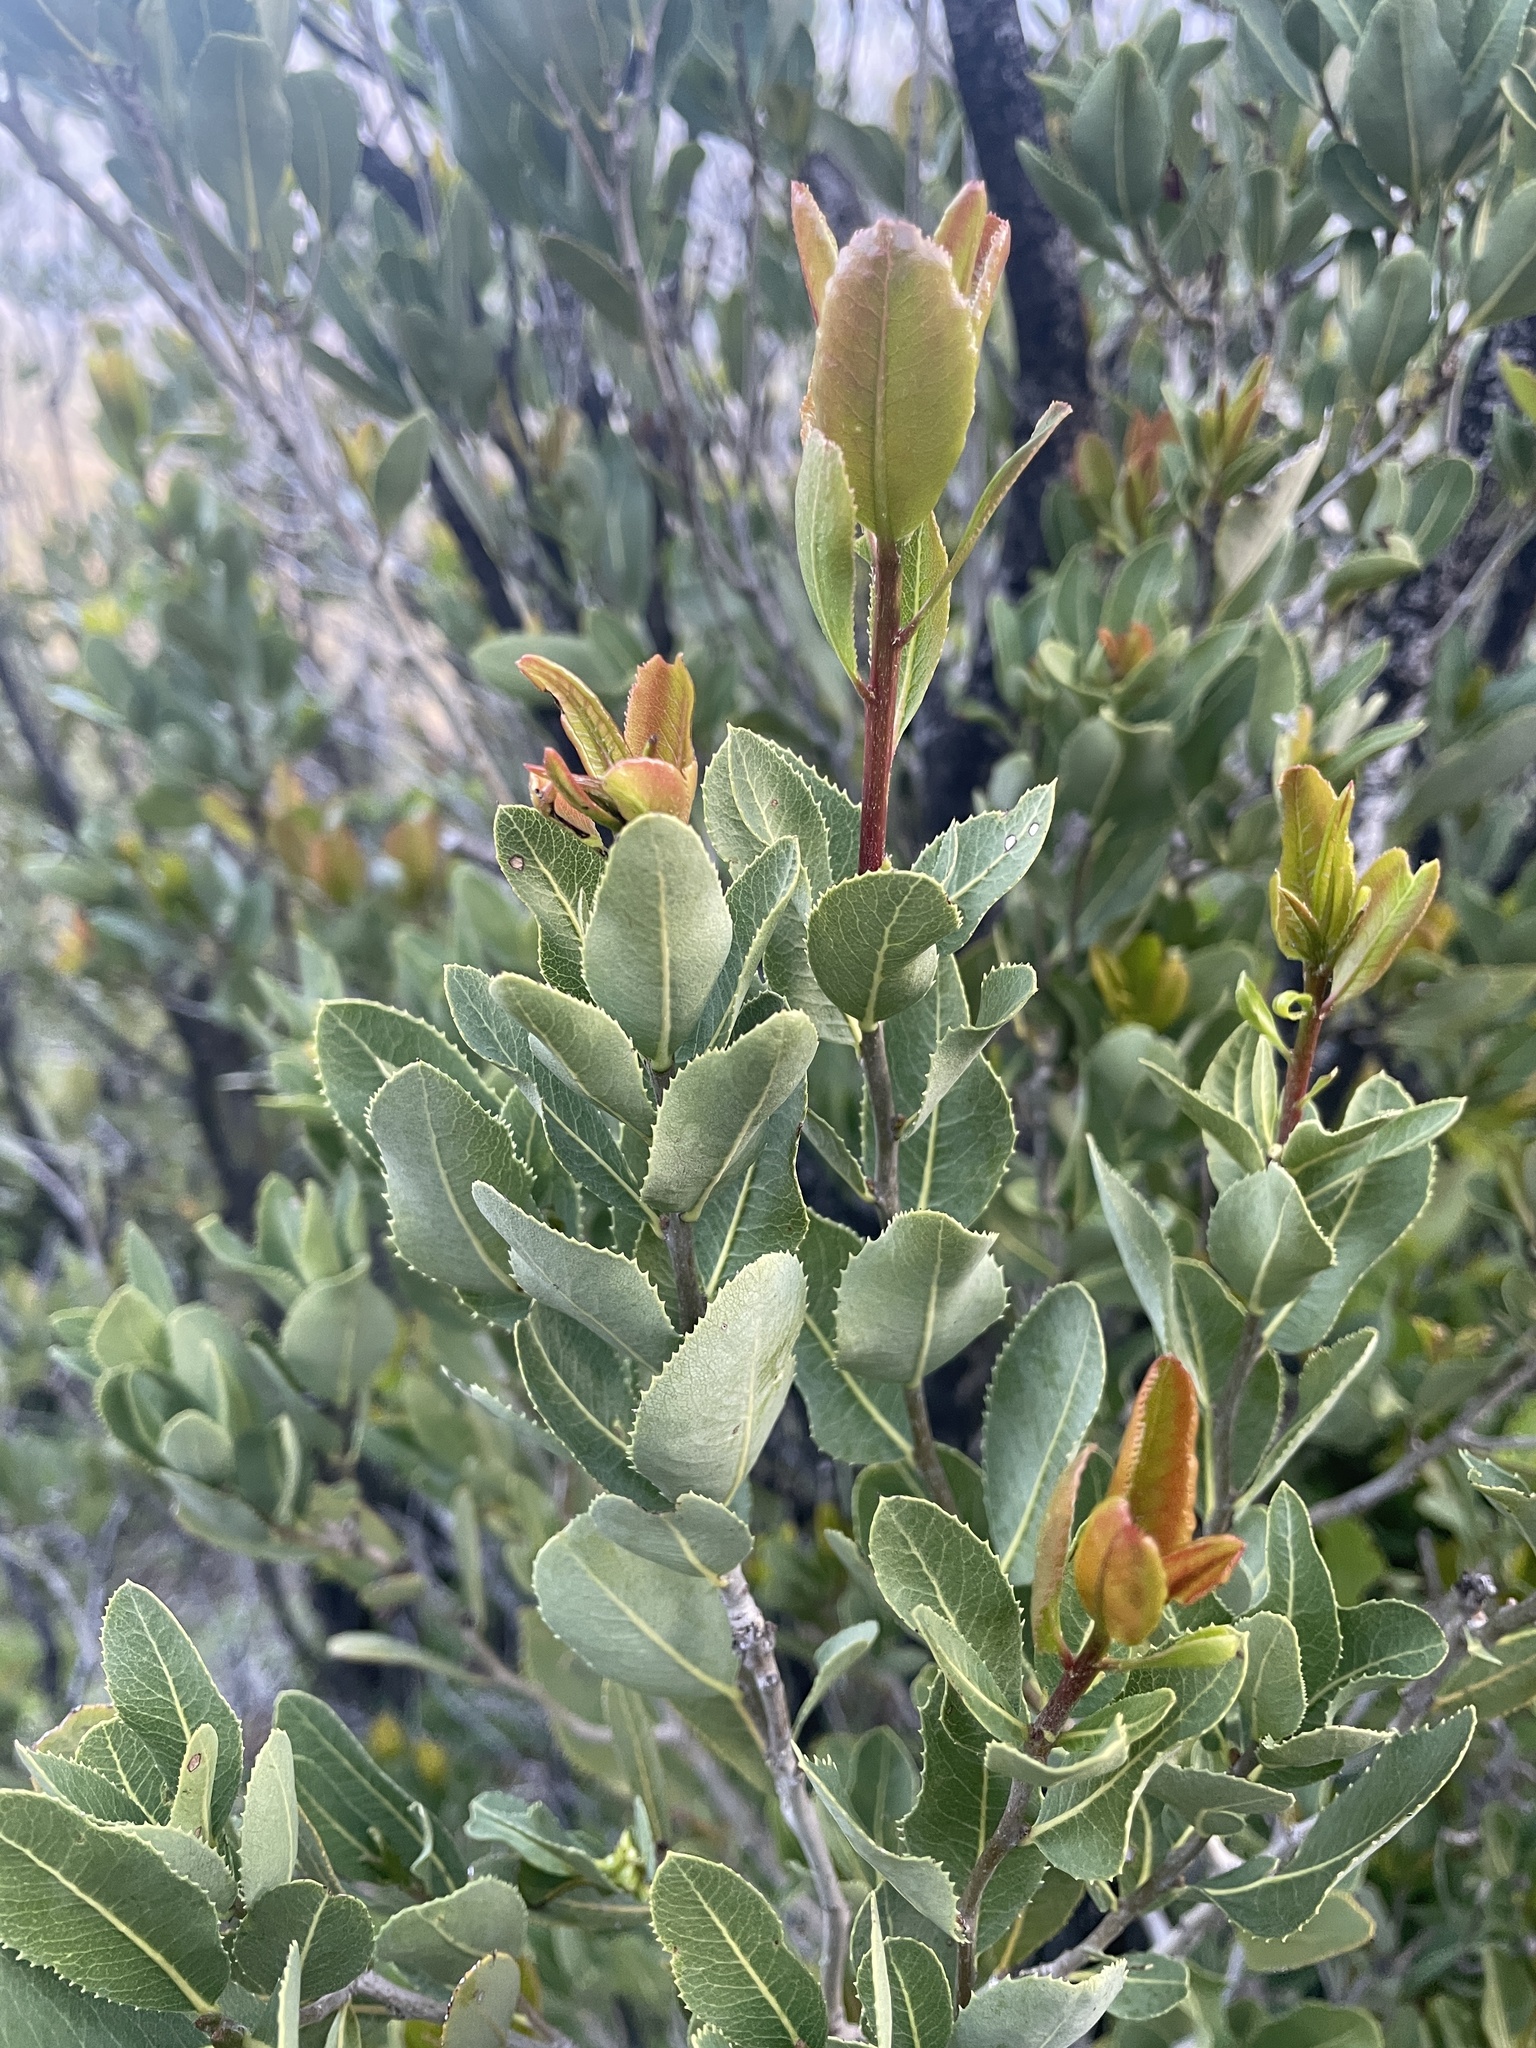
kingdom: Plantae
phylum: Tracheophyta
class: Magnoliopsida
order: Rosales
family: Rosaceae
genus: Kageneckia
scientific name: Kageneckia oblonga
